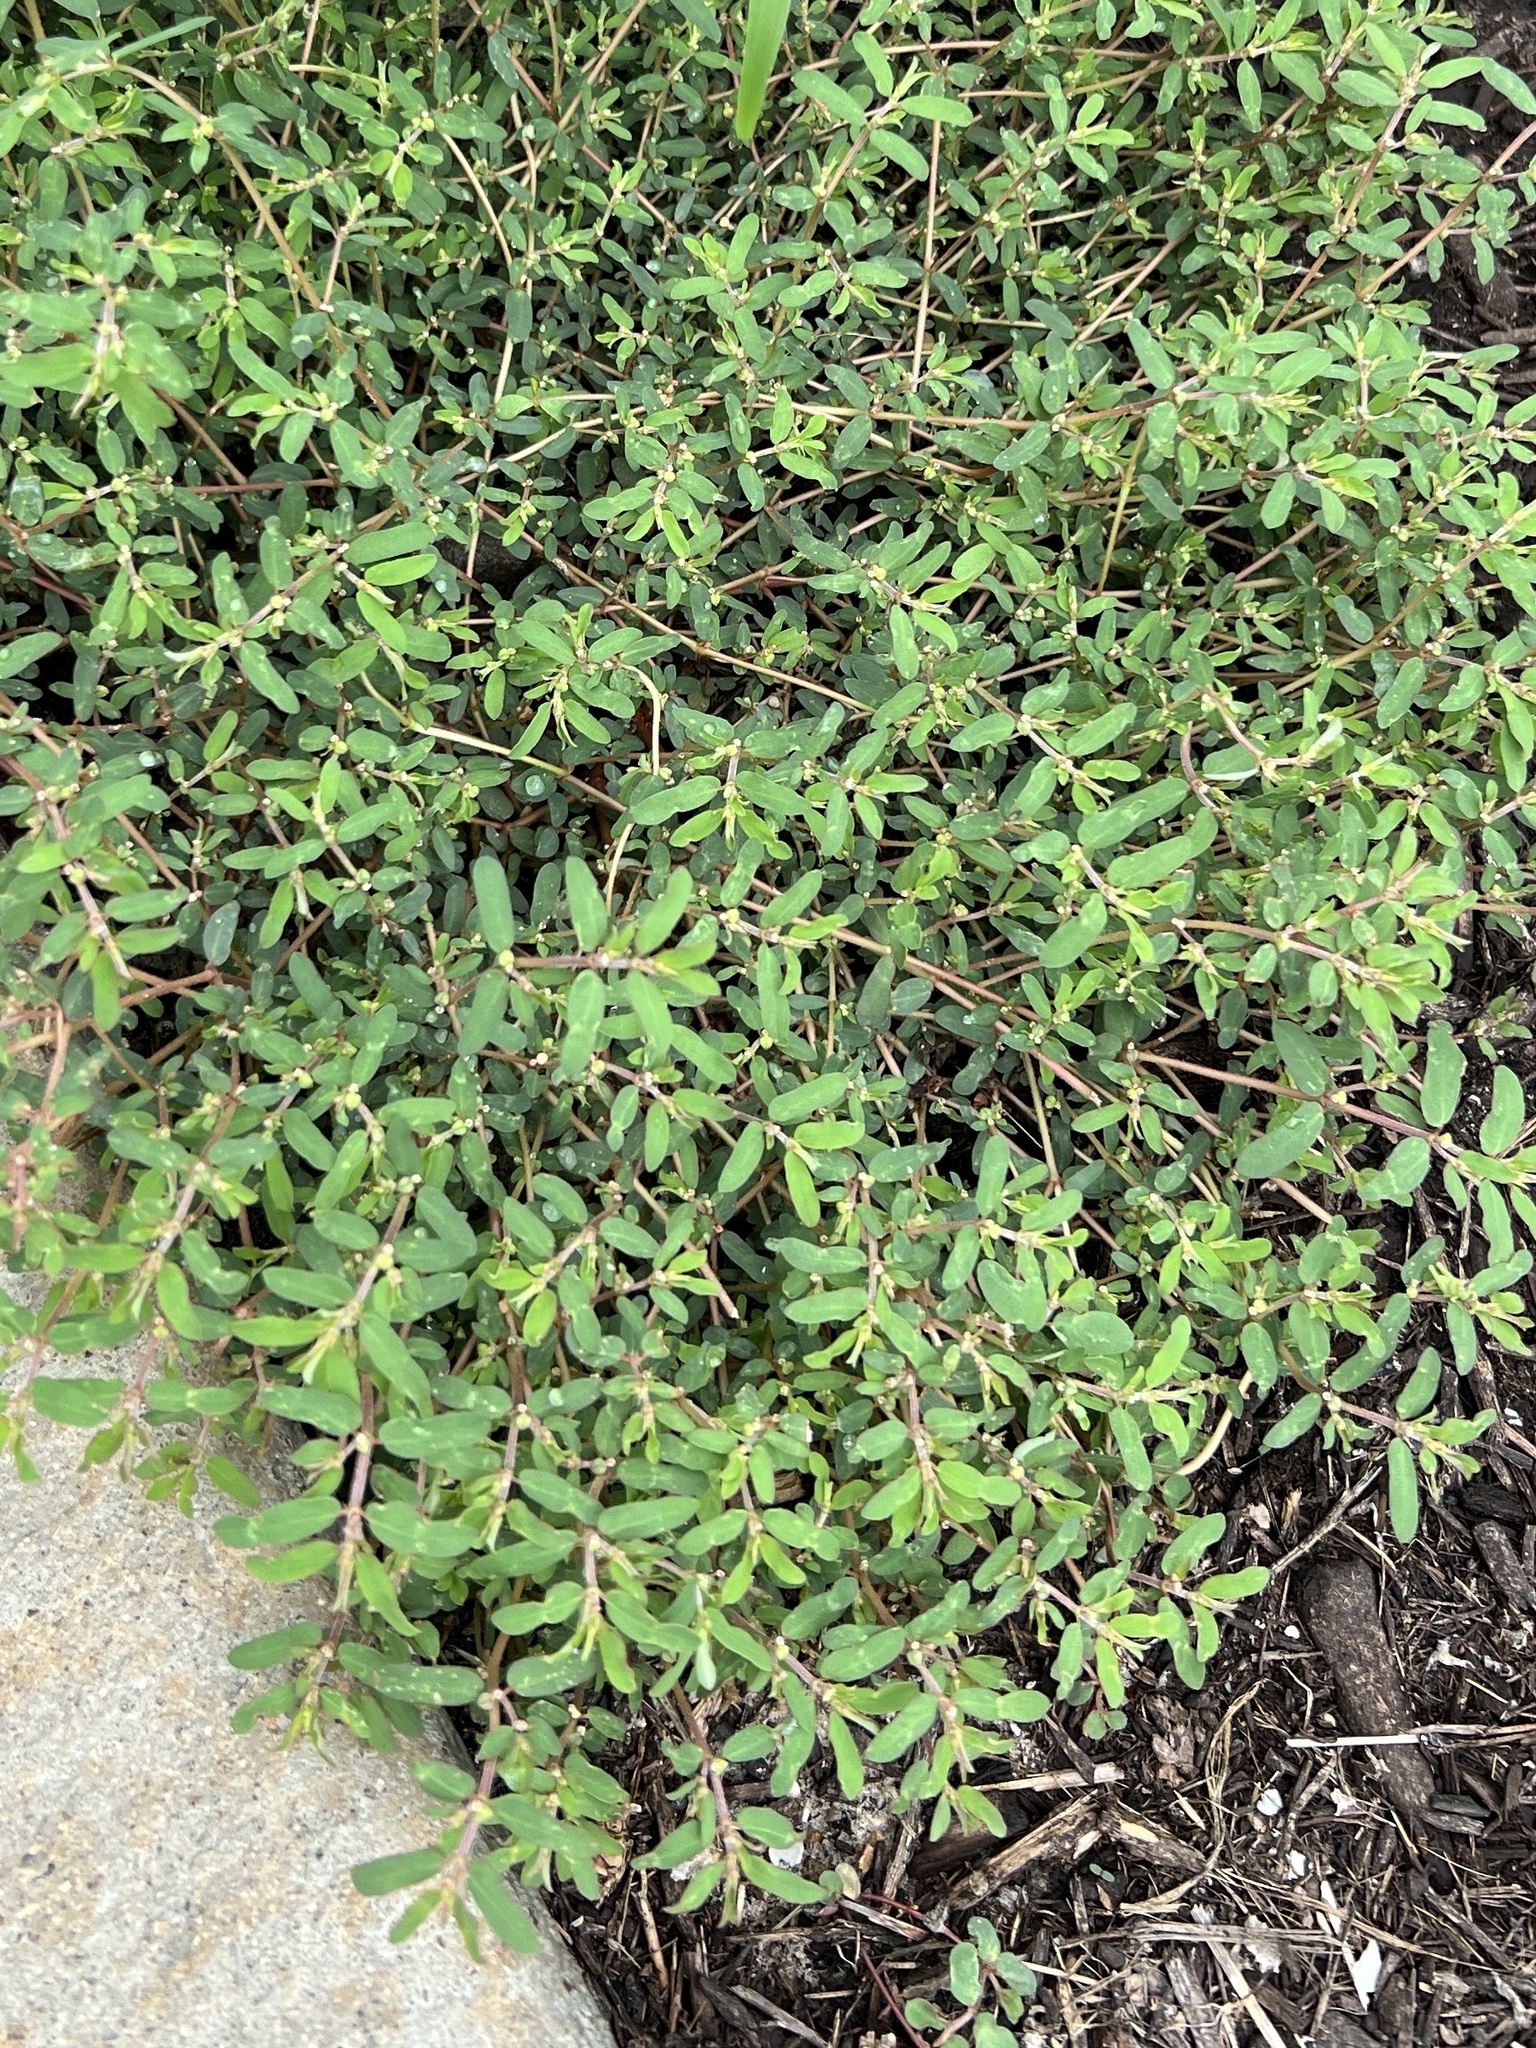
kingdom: Plantae
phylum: Tracheophyta
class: Magnoliopsida
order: Malpighiales
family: Euphorbiaceae
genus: Euphorbia
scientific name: Euphorbia maculata
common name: Spotted spurge
